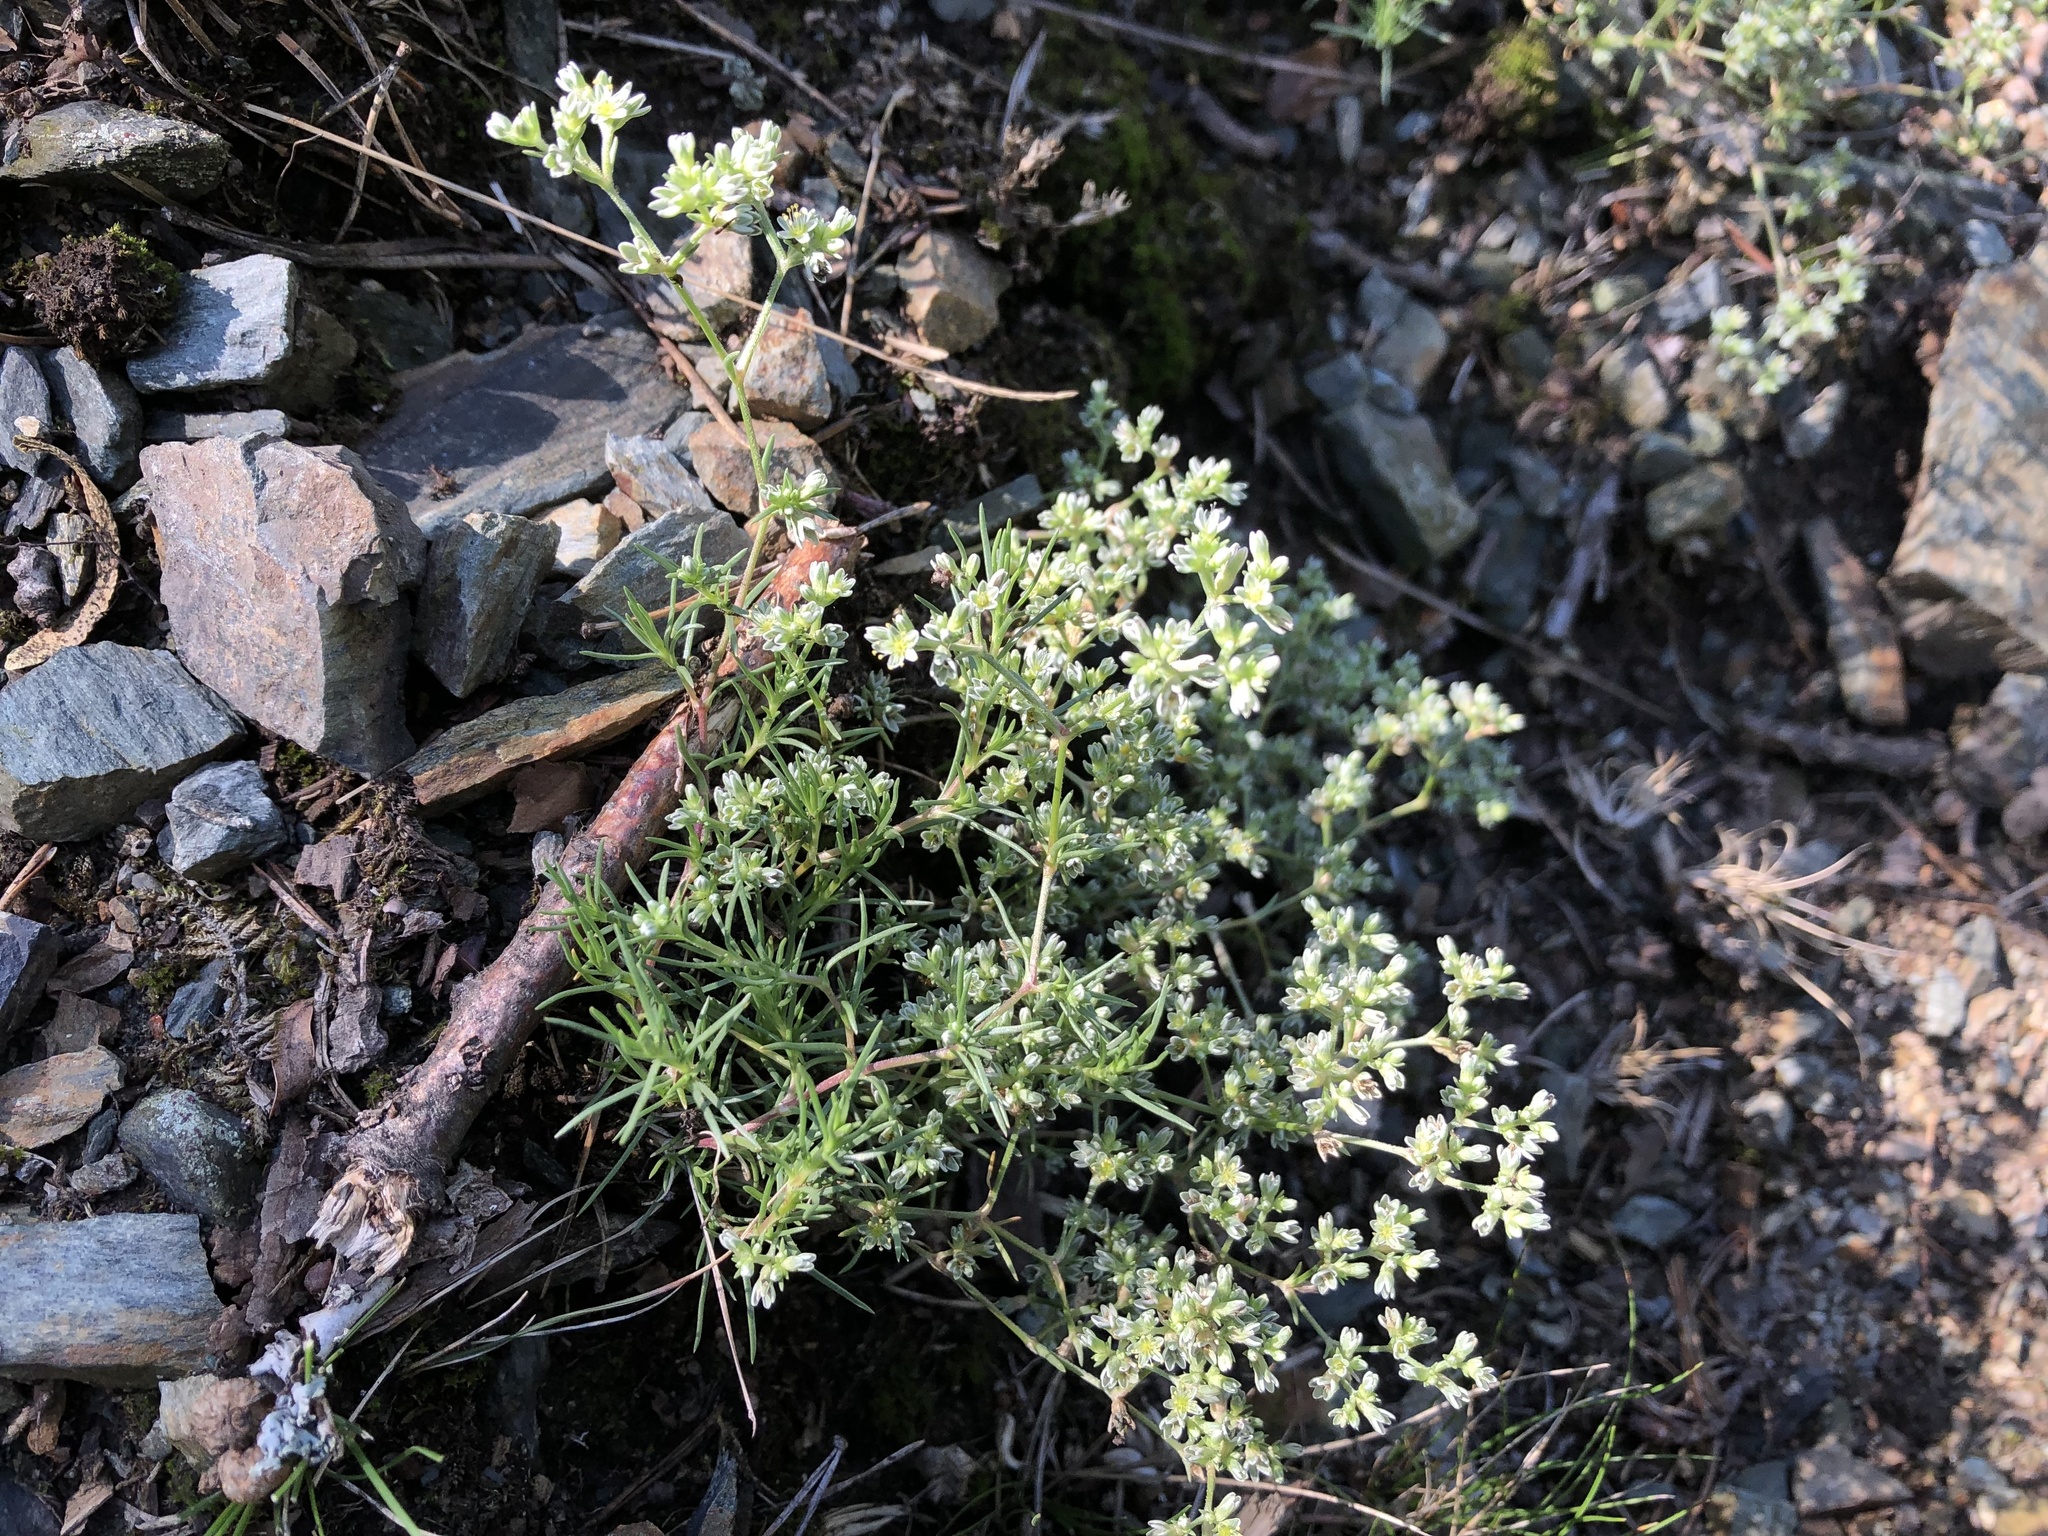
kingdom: Plantae
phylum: Tracheophyta
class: Magnoliopsida
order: Caryophyllales
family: Caryophyllaceae
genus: Scleranthus
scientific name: Scleranthus perennis
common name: Perennial knawel
